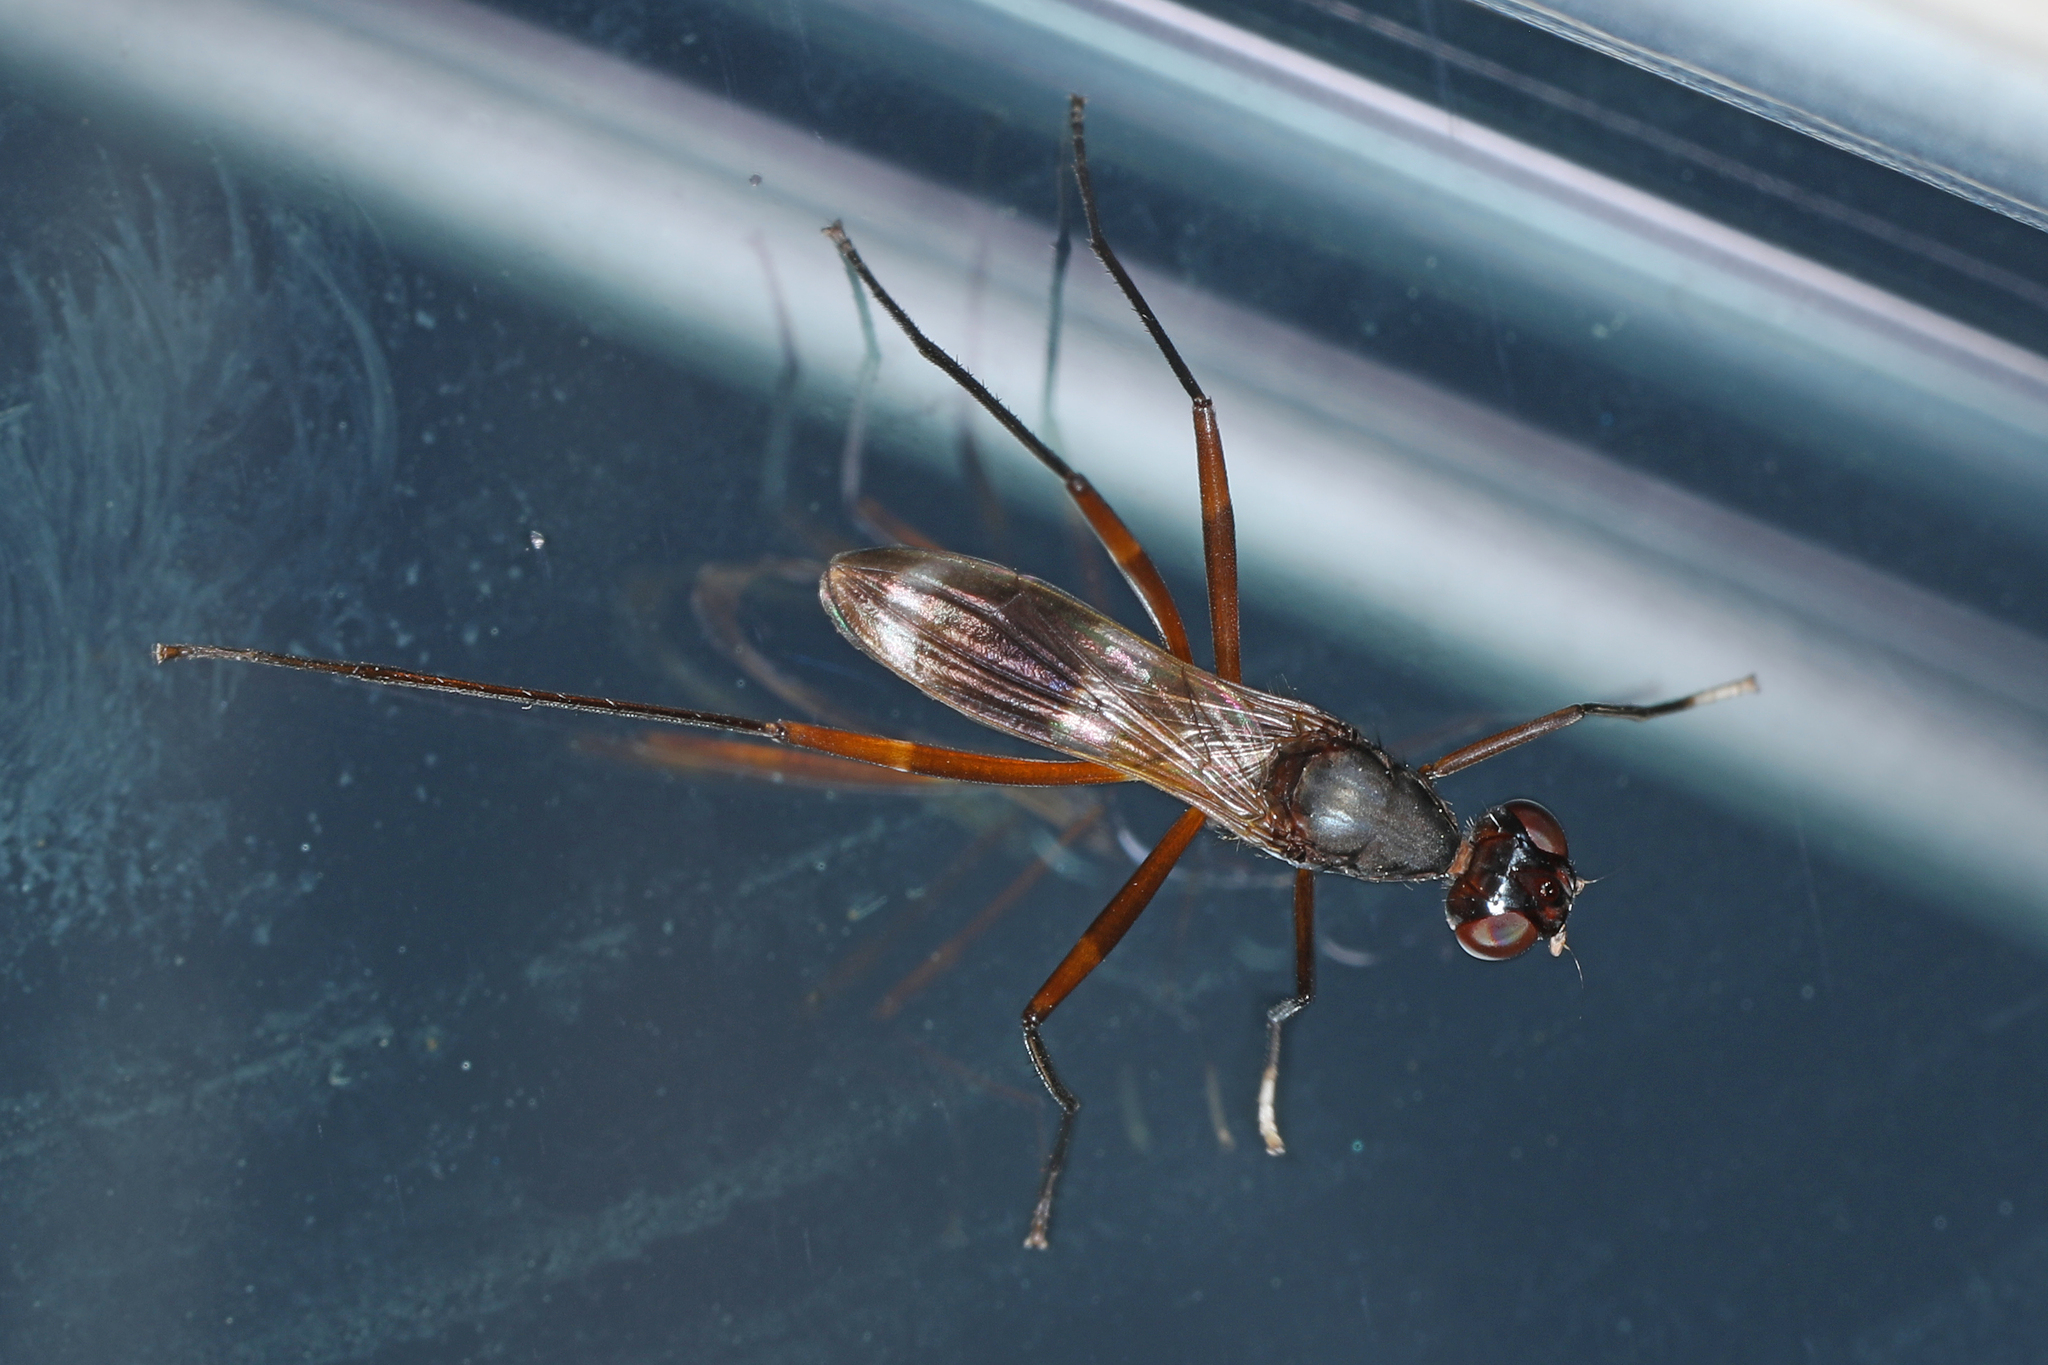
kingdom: Animalia
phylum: Arthropoda
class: Insecta
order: Diptera
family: Micropezidae
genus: Taeniaptera
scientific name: Taeniaptera trivittata
